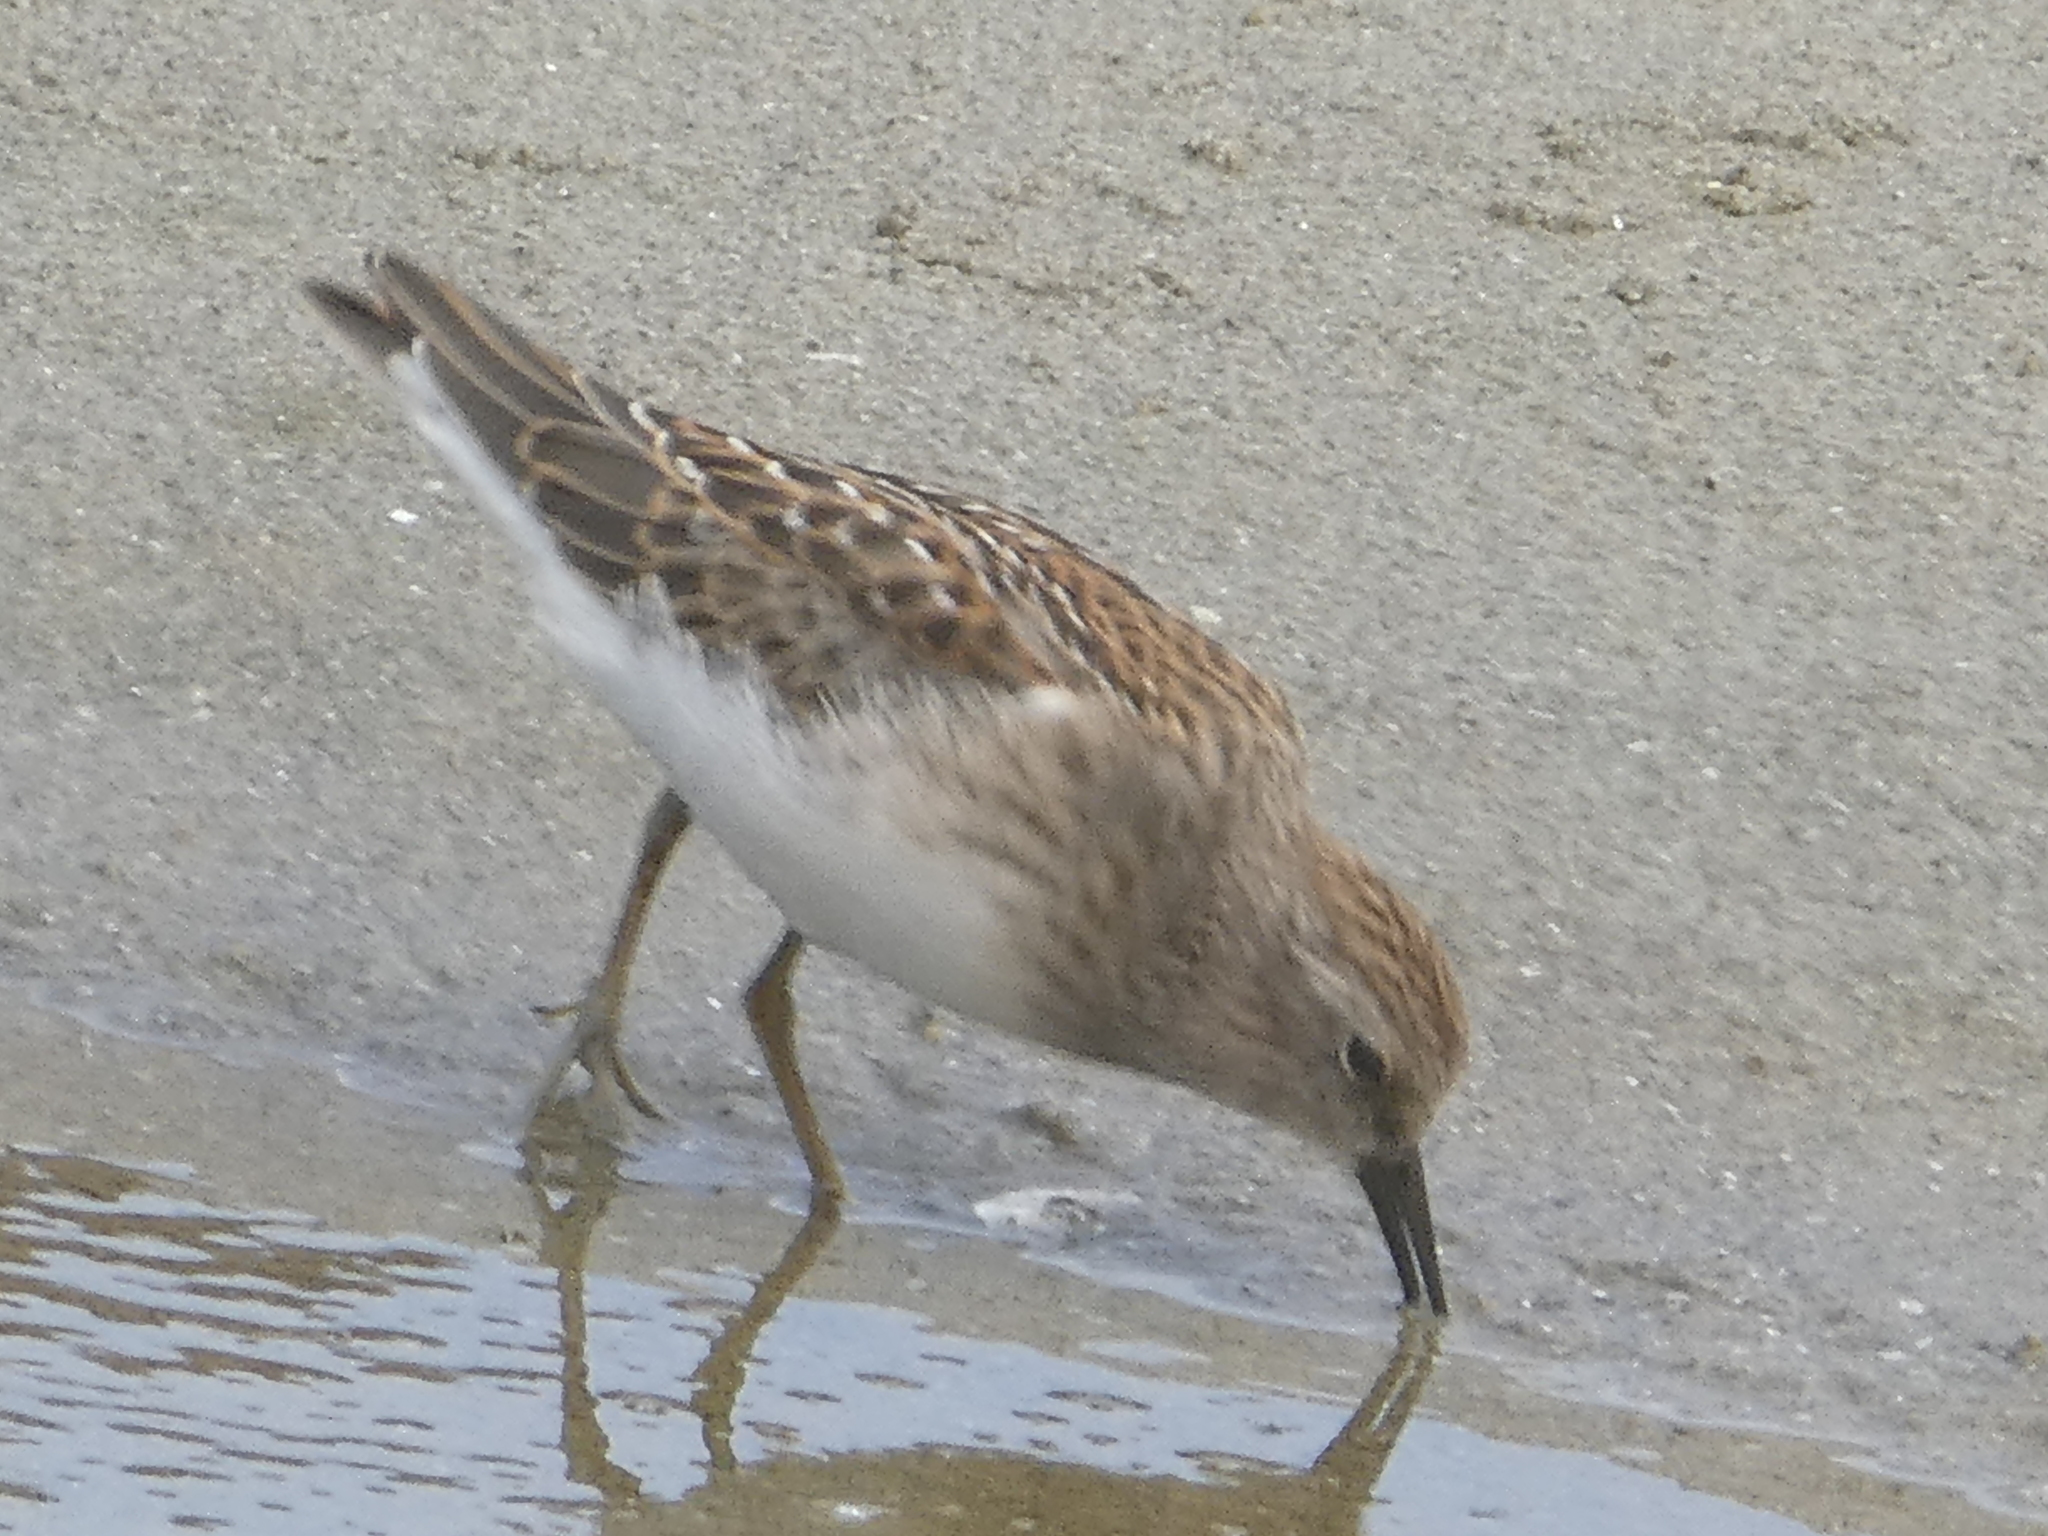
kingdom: Animalia
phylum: Chordata
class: Aves
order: Charadriiformes
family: Scolopacidae
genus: Calidris
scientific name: Calidris minutilla
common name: Least sandpiper
